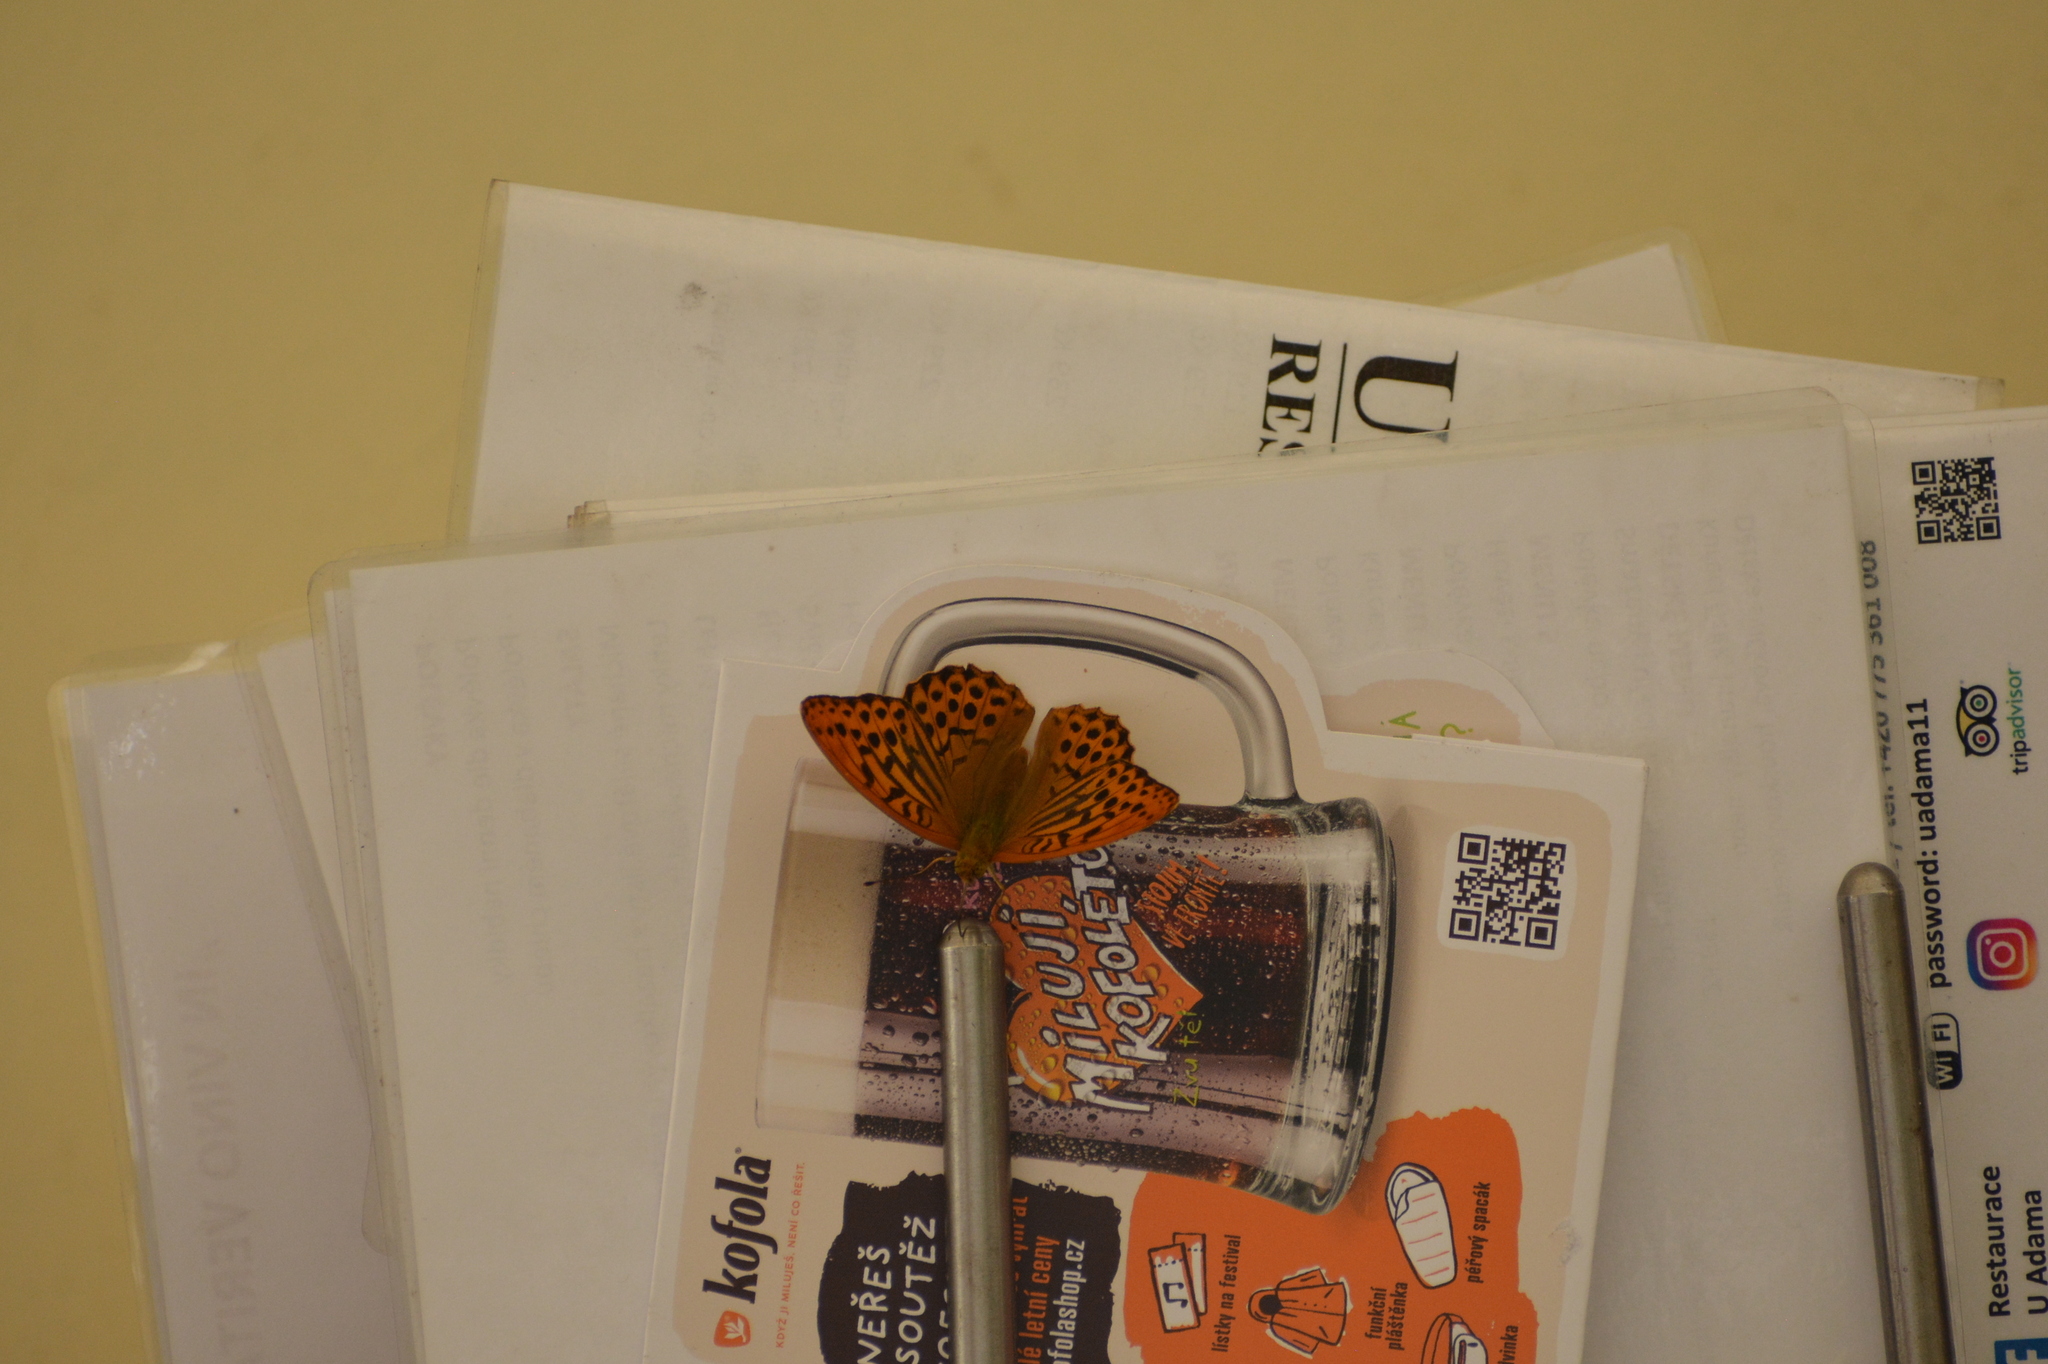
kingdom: Animalia
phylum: Arthropoda
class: Insecta
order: Lepidoptera
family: Nymphalidae
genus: Argynnis
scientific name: Argynnis paphia
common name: Silver-washed fritillary
